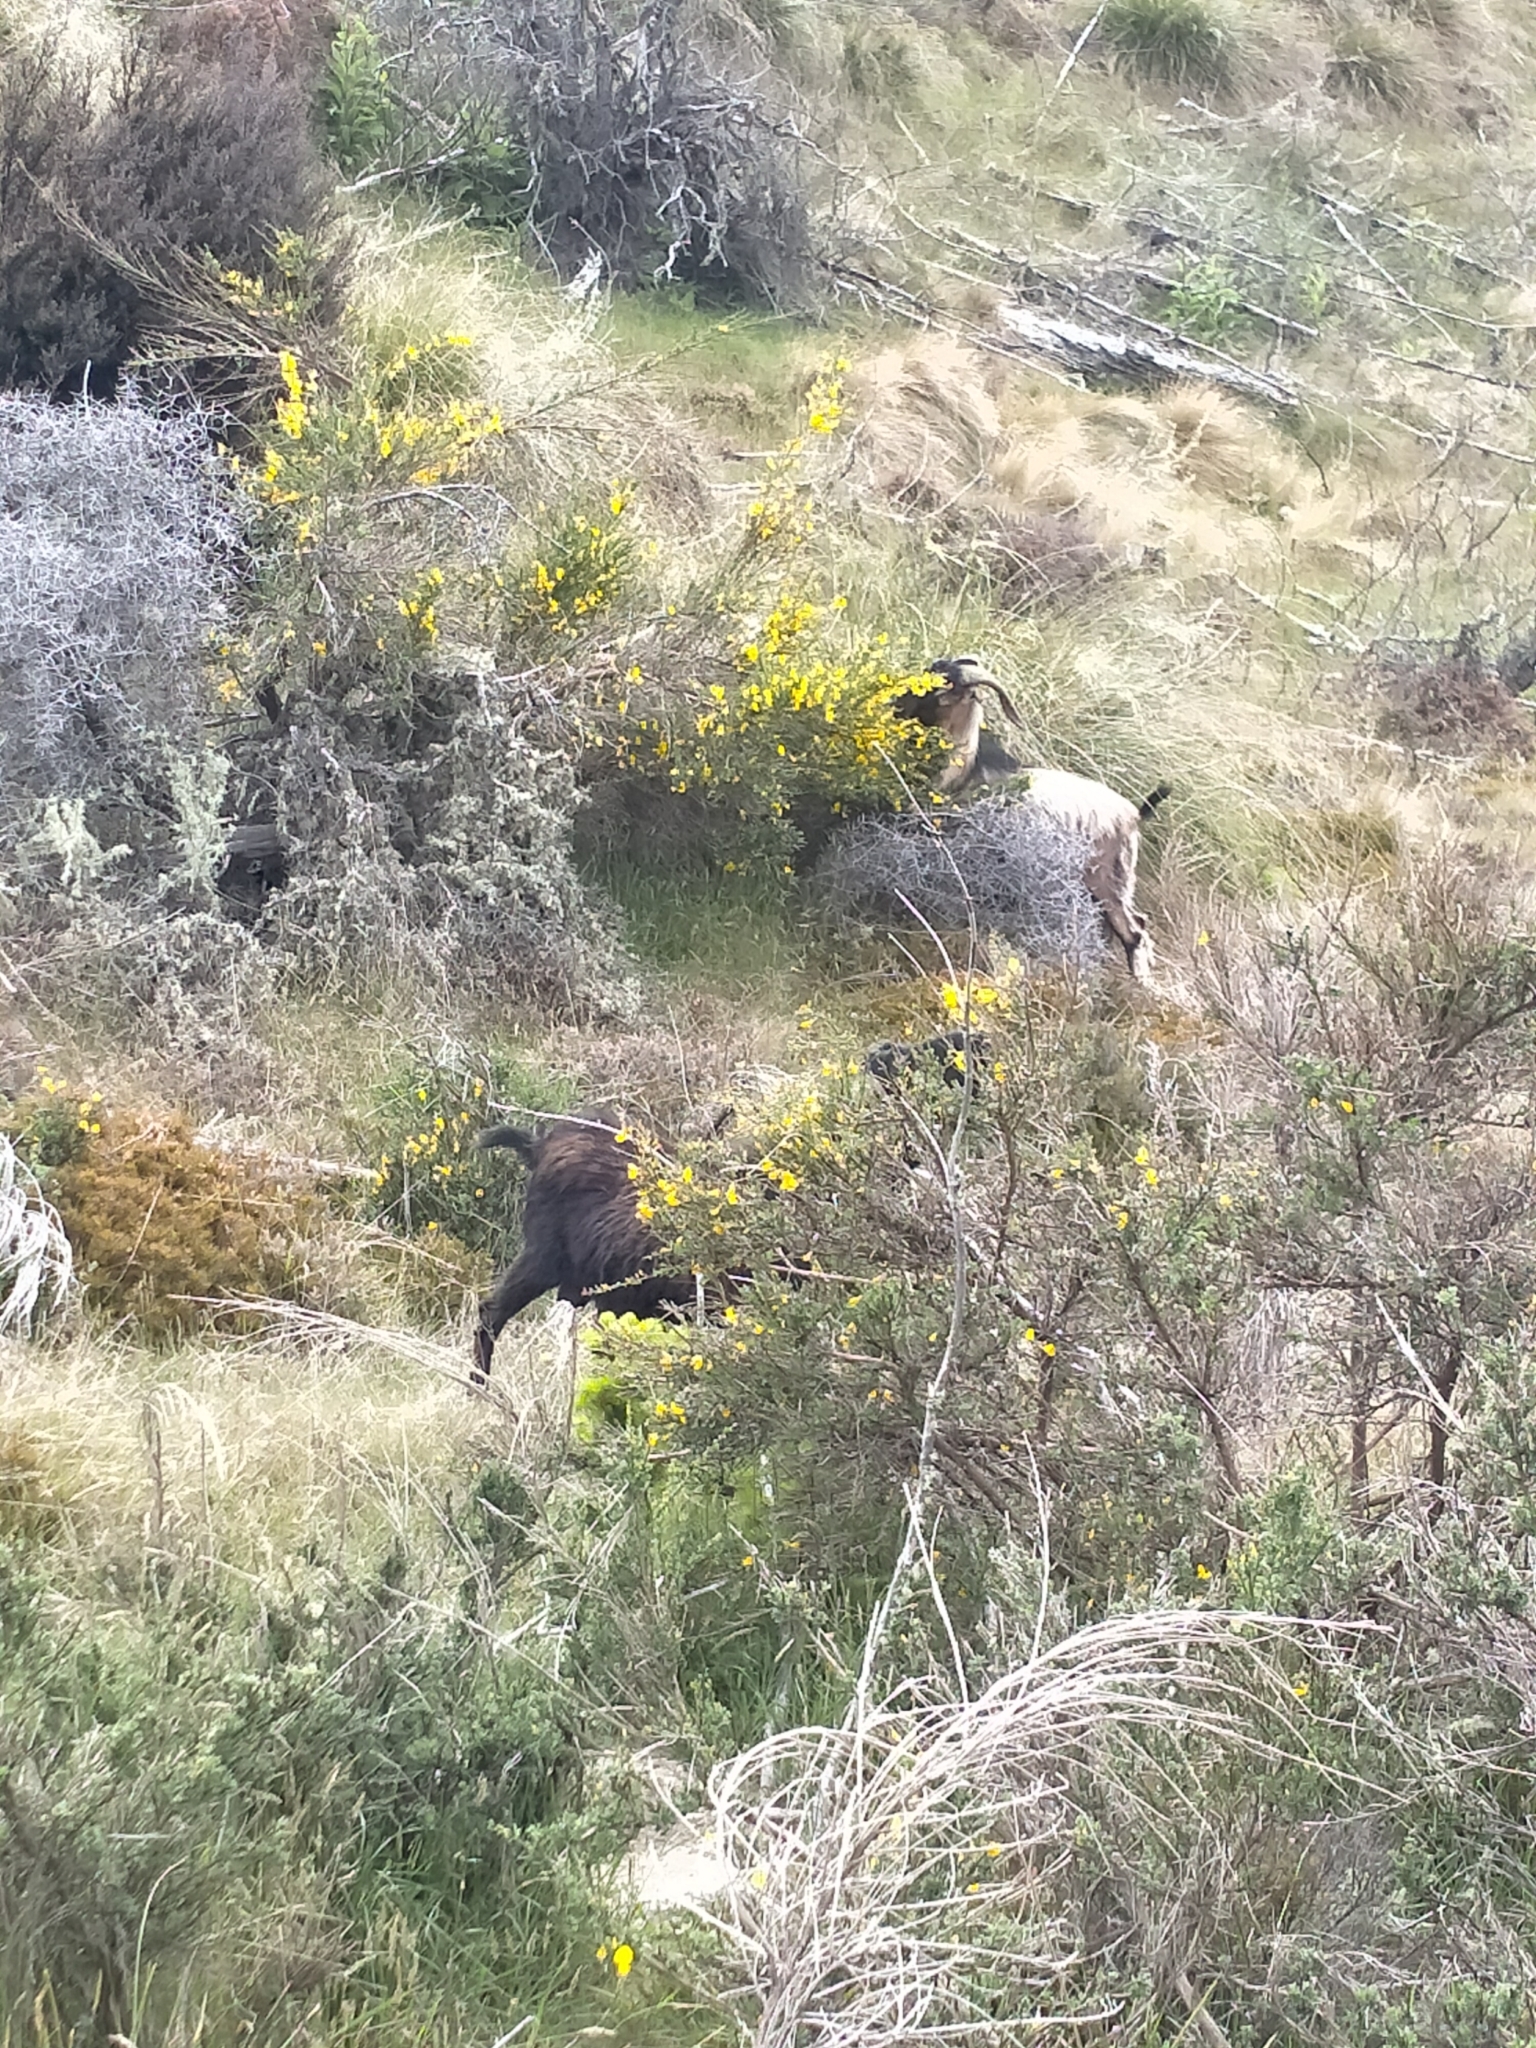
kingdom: Animalia
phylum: Chordata
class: Mammalia
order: Artiodactyla
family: Bovidae
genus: Capra
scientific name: Capra hircus
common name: Domestic goat
